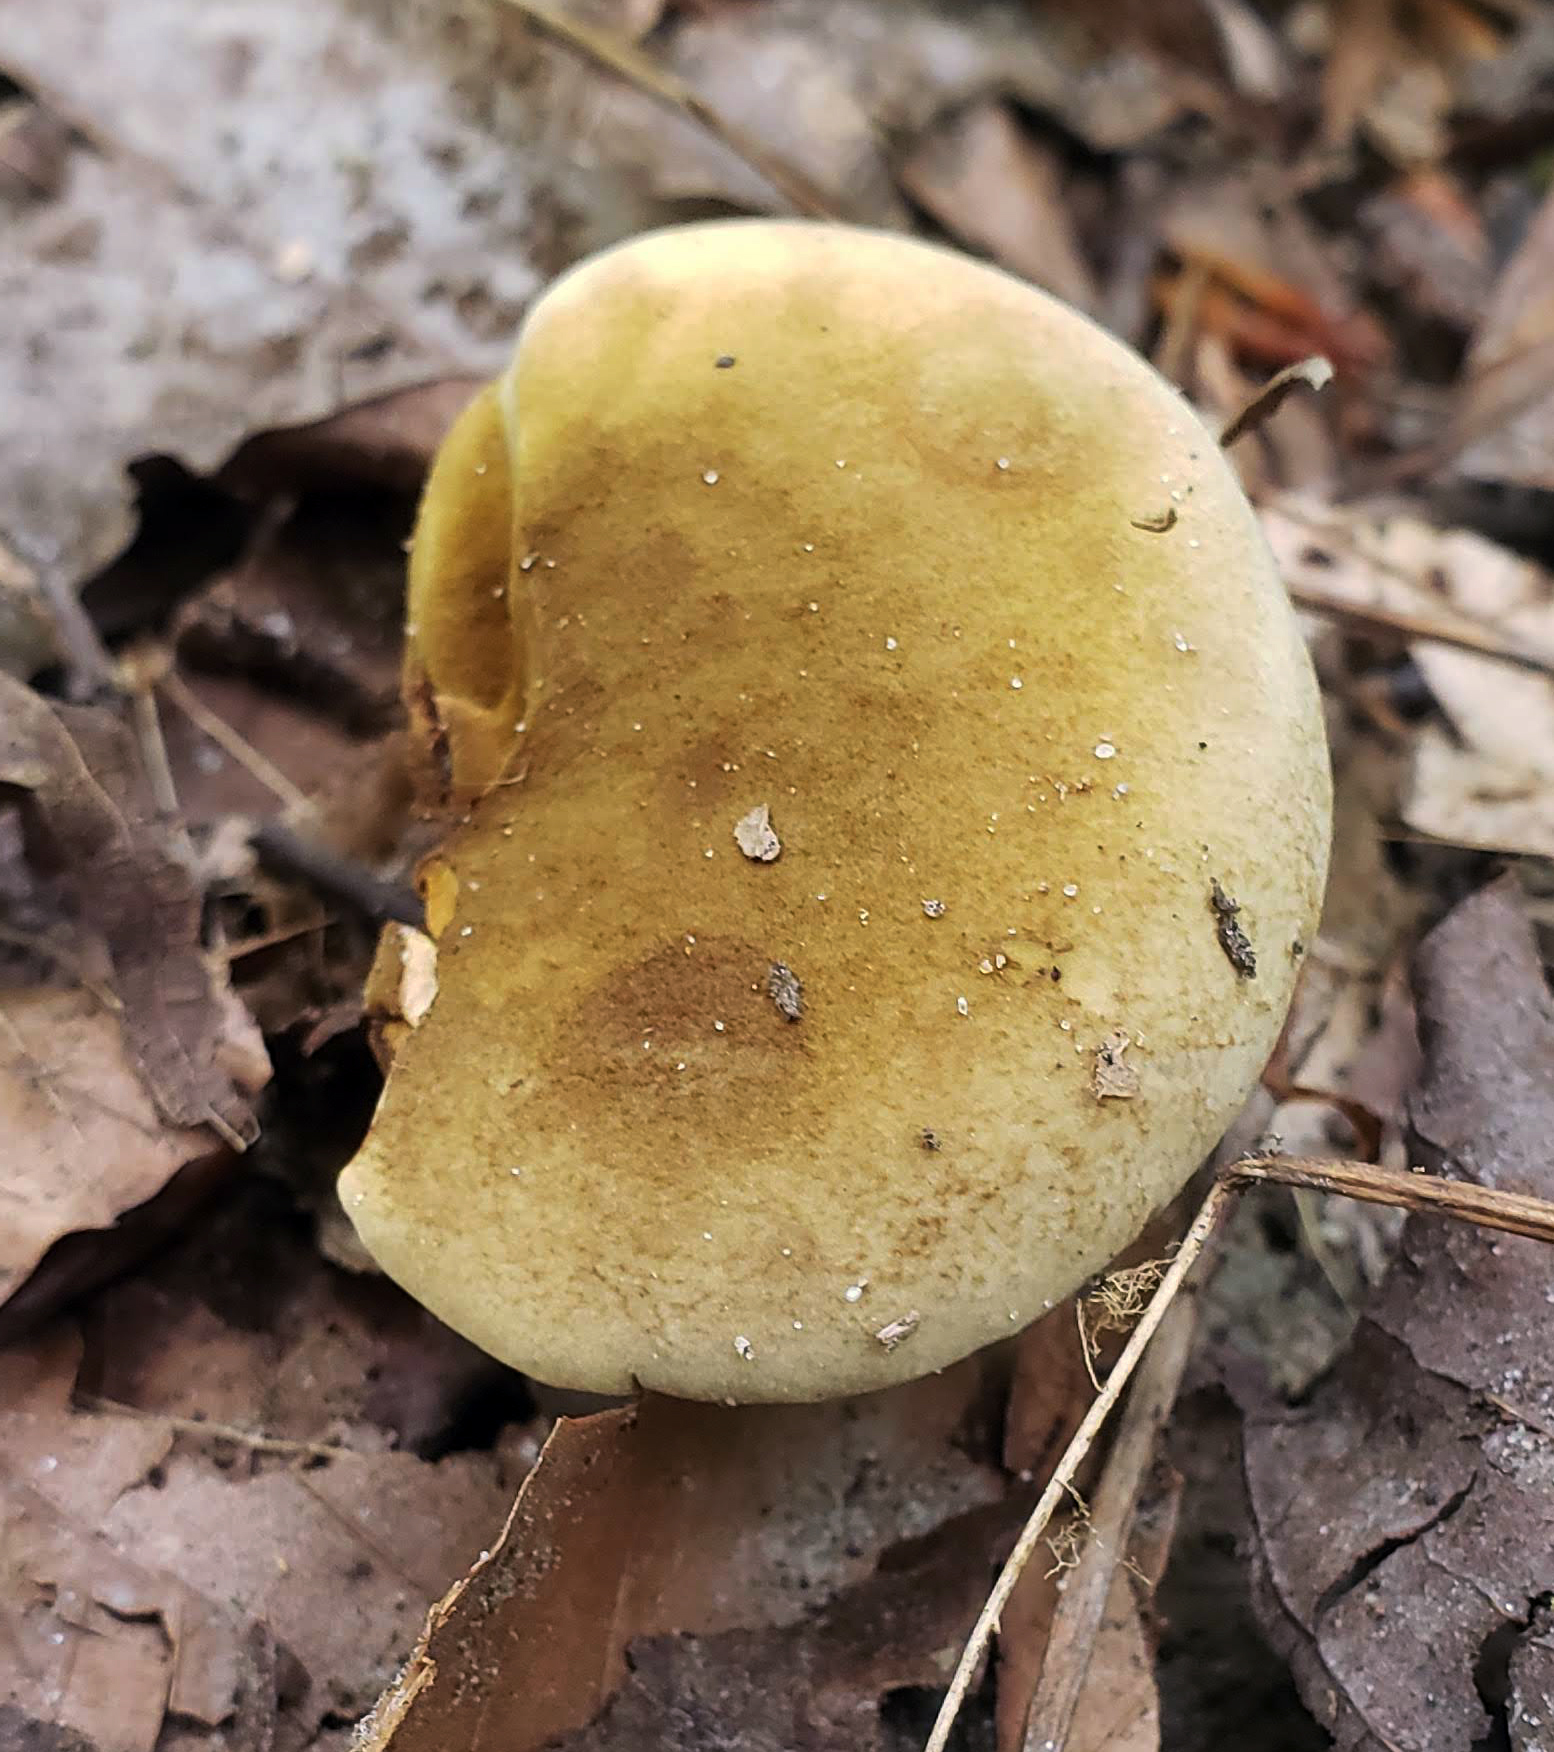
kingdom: Fungi
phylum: Basidiomycota
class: Agaricomycetes
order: Boletales
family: Boletinellaceae
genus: Boletinellus
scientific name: Boletinellus merulioides
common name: Ash tree bolete
